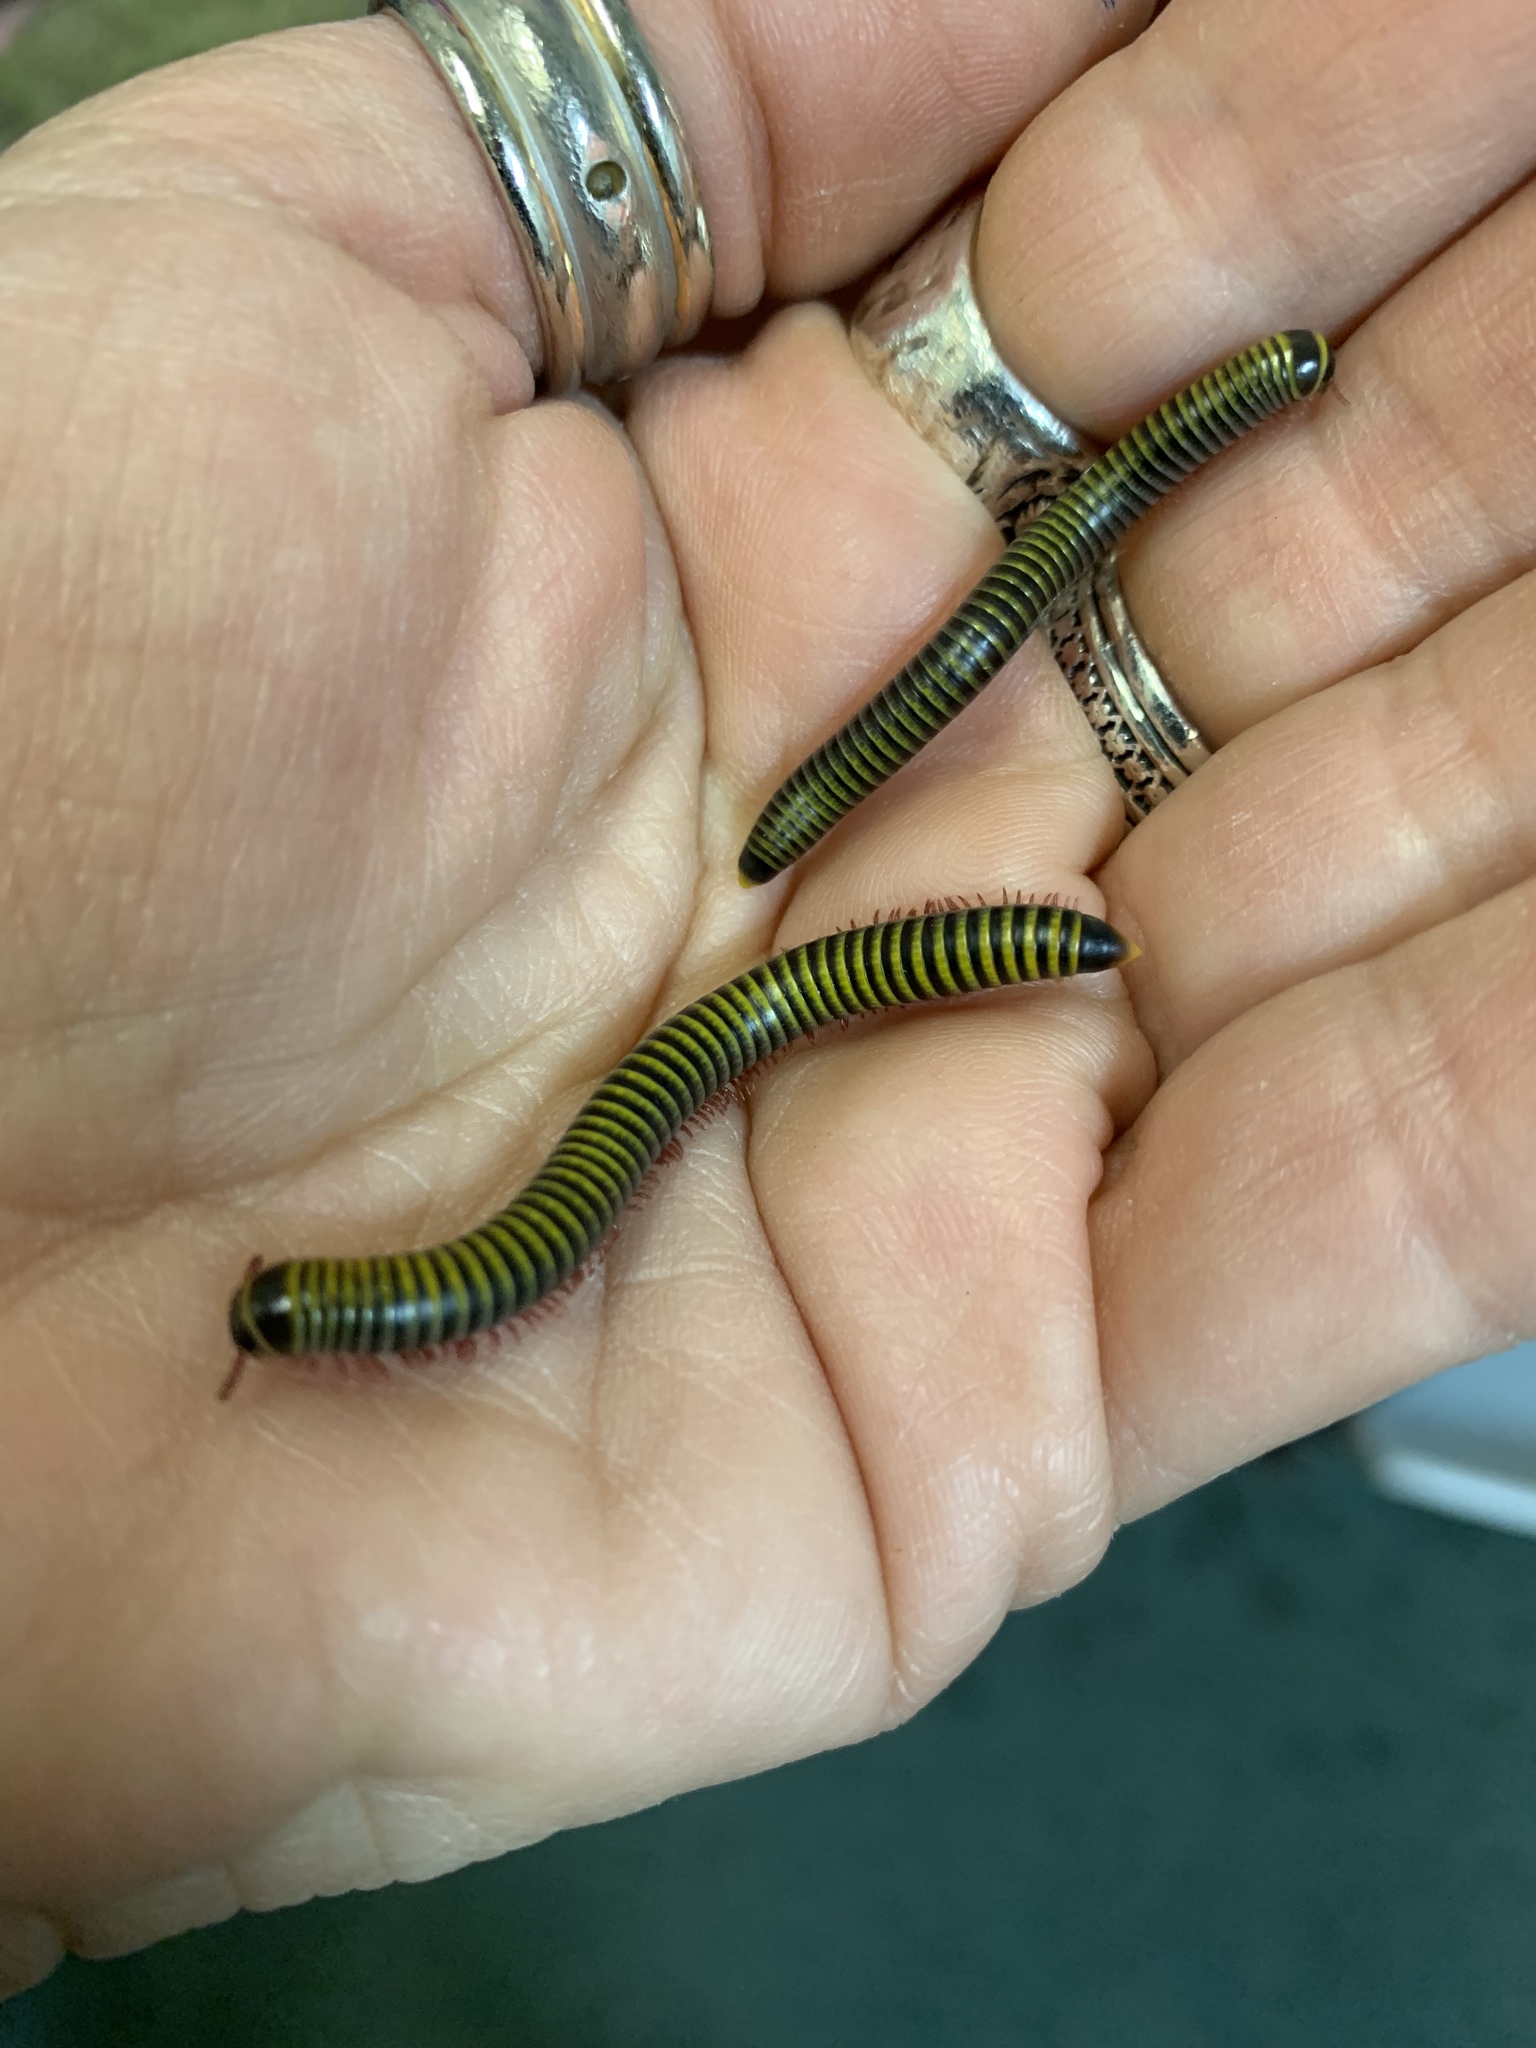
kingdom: Animalia
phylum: Arthropoda
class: Diplopoda
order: Spirobolida
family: Rhinocricidae
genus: Anadenobolus
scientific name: Anadenobolus monilicornis
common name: Caribbean millipede
